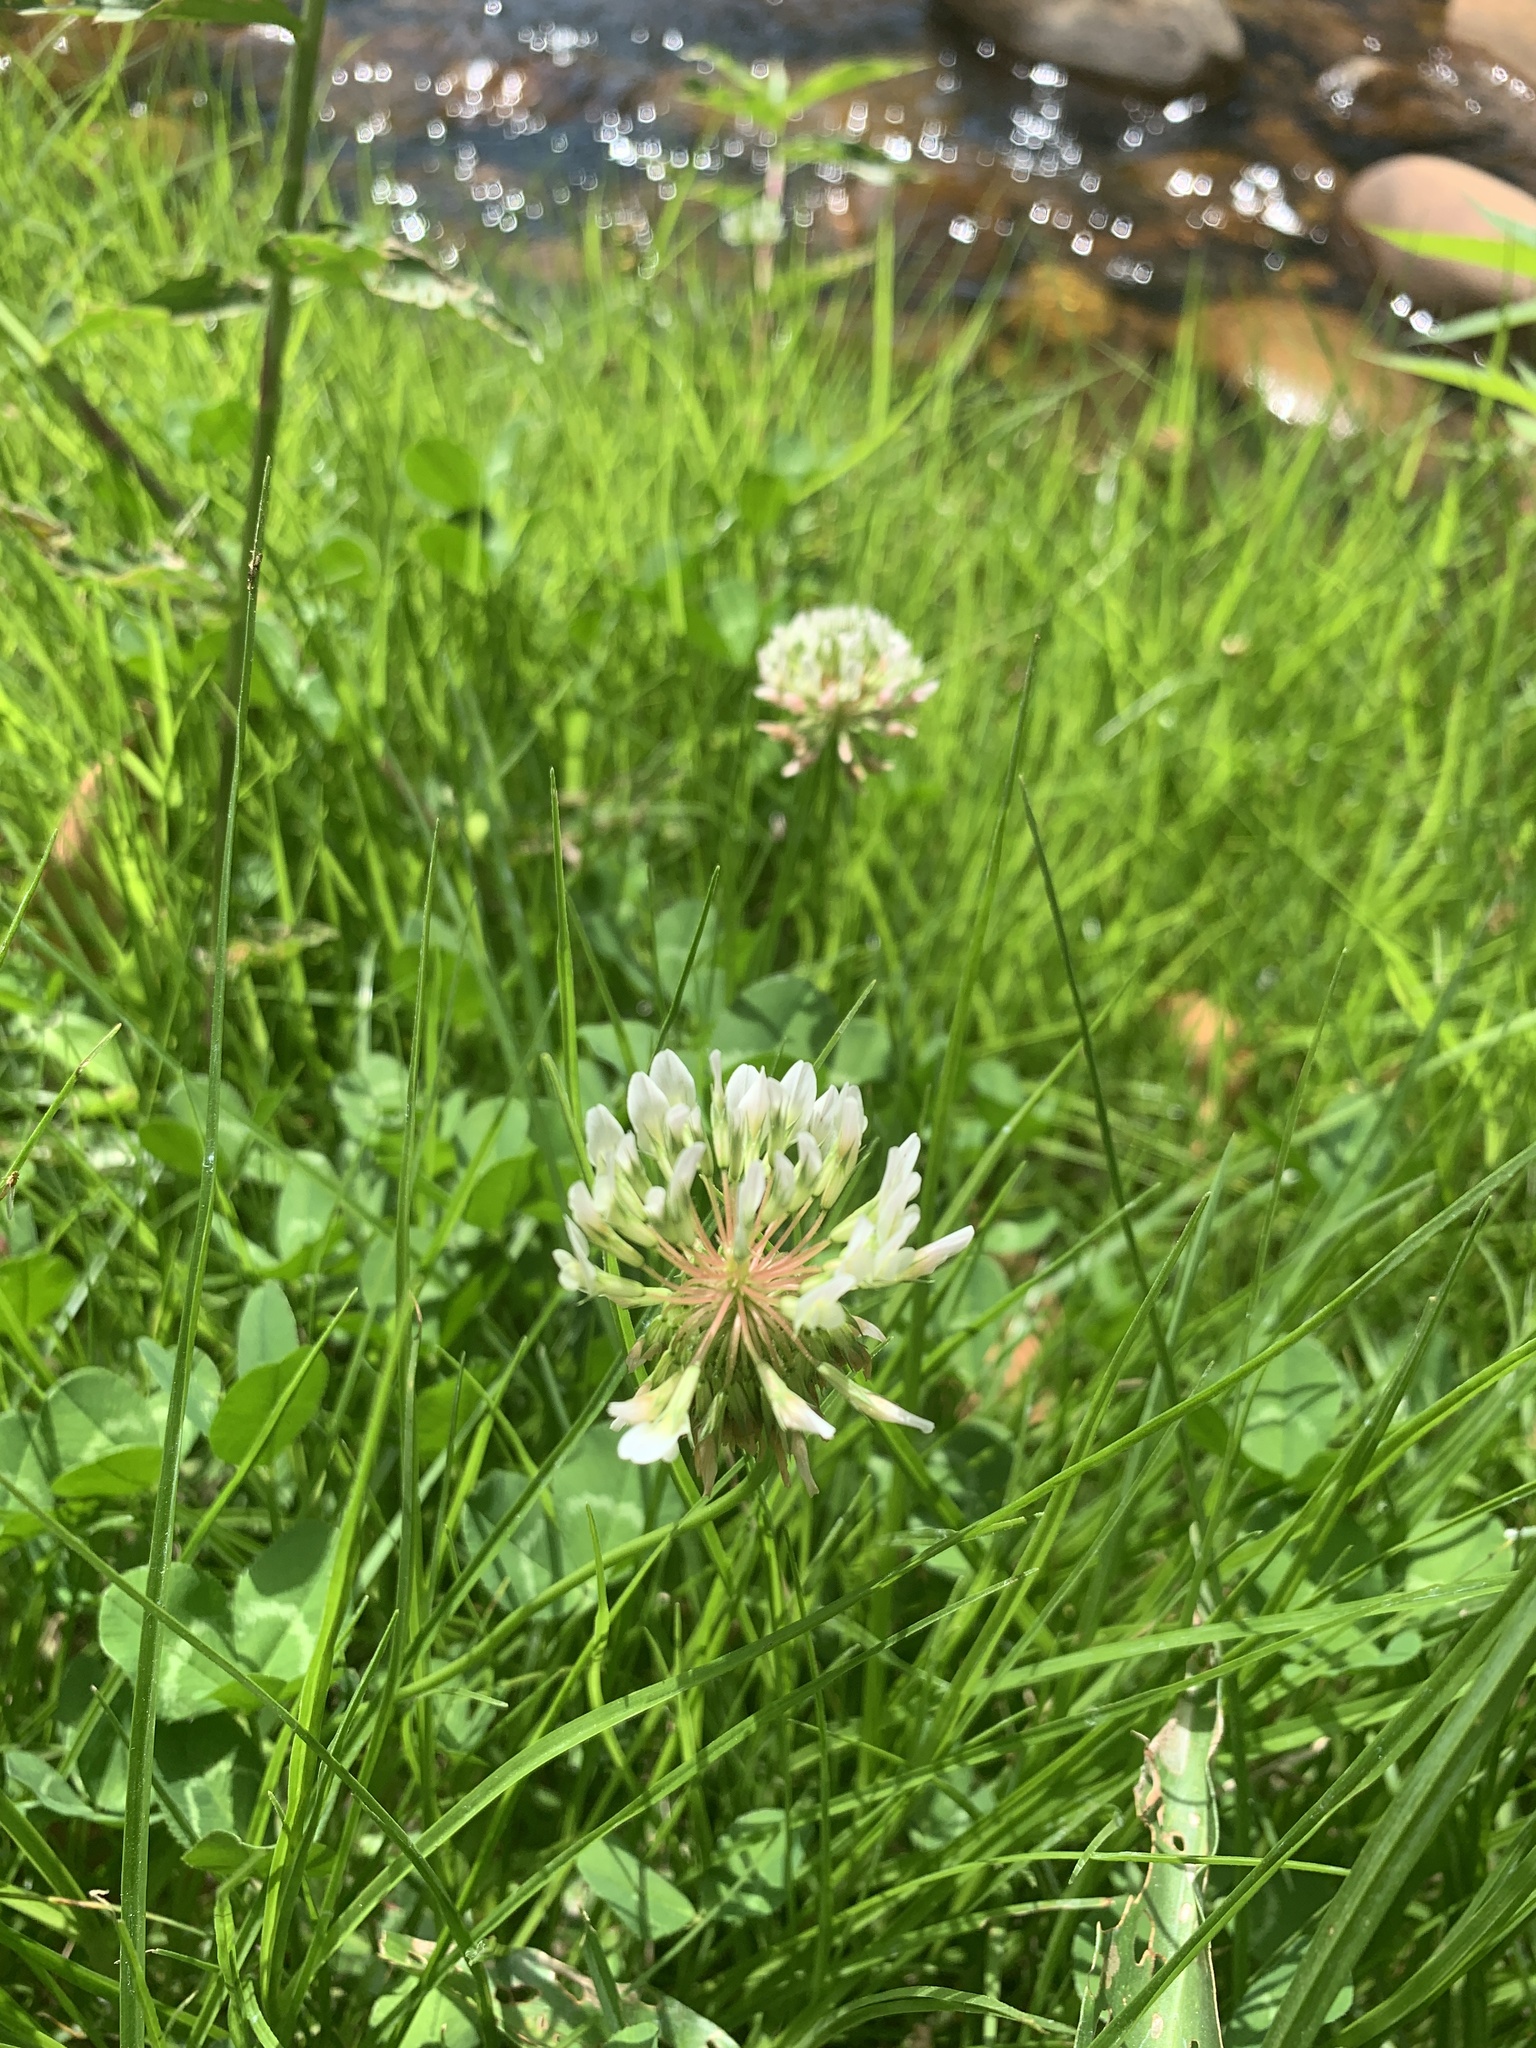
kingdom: Plantae
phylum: Tracheophyta
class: Magnoliopsida
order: Fabales
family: Fabaceae
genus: Trifolium
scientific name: Trifolium repens
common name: White clover
